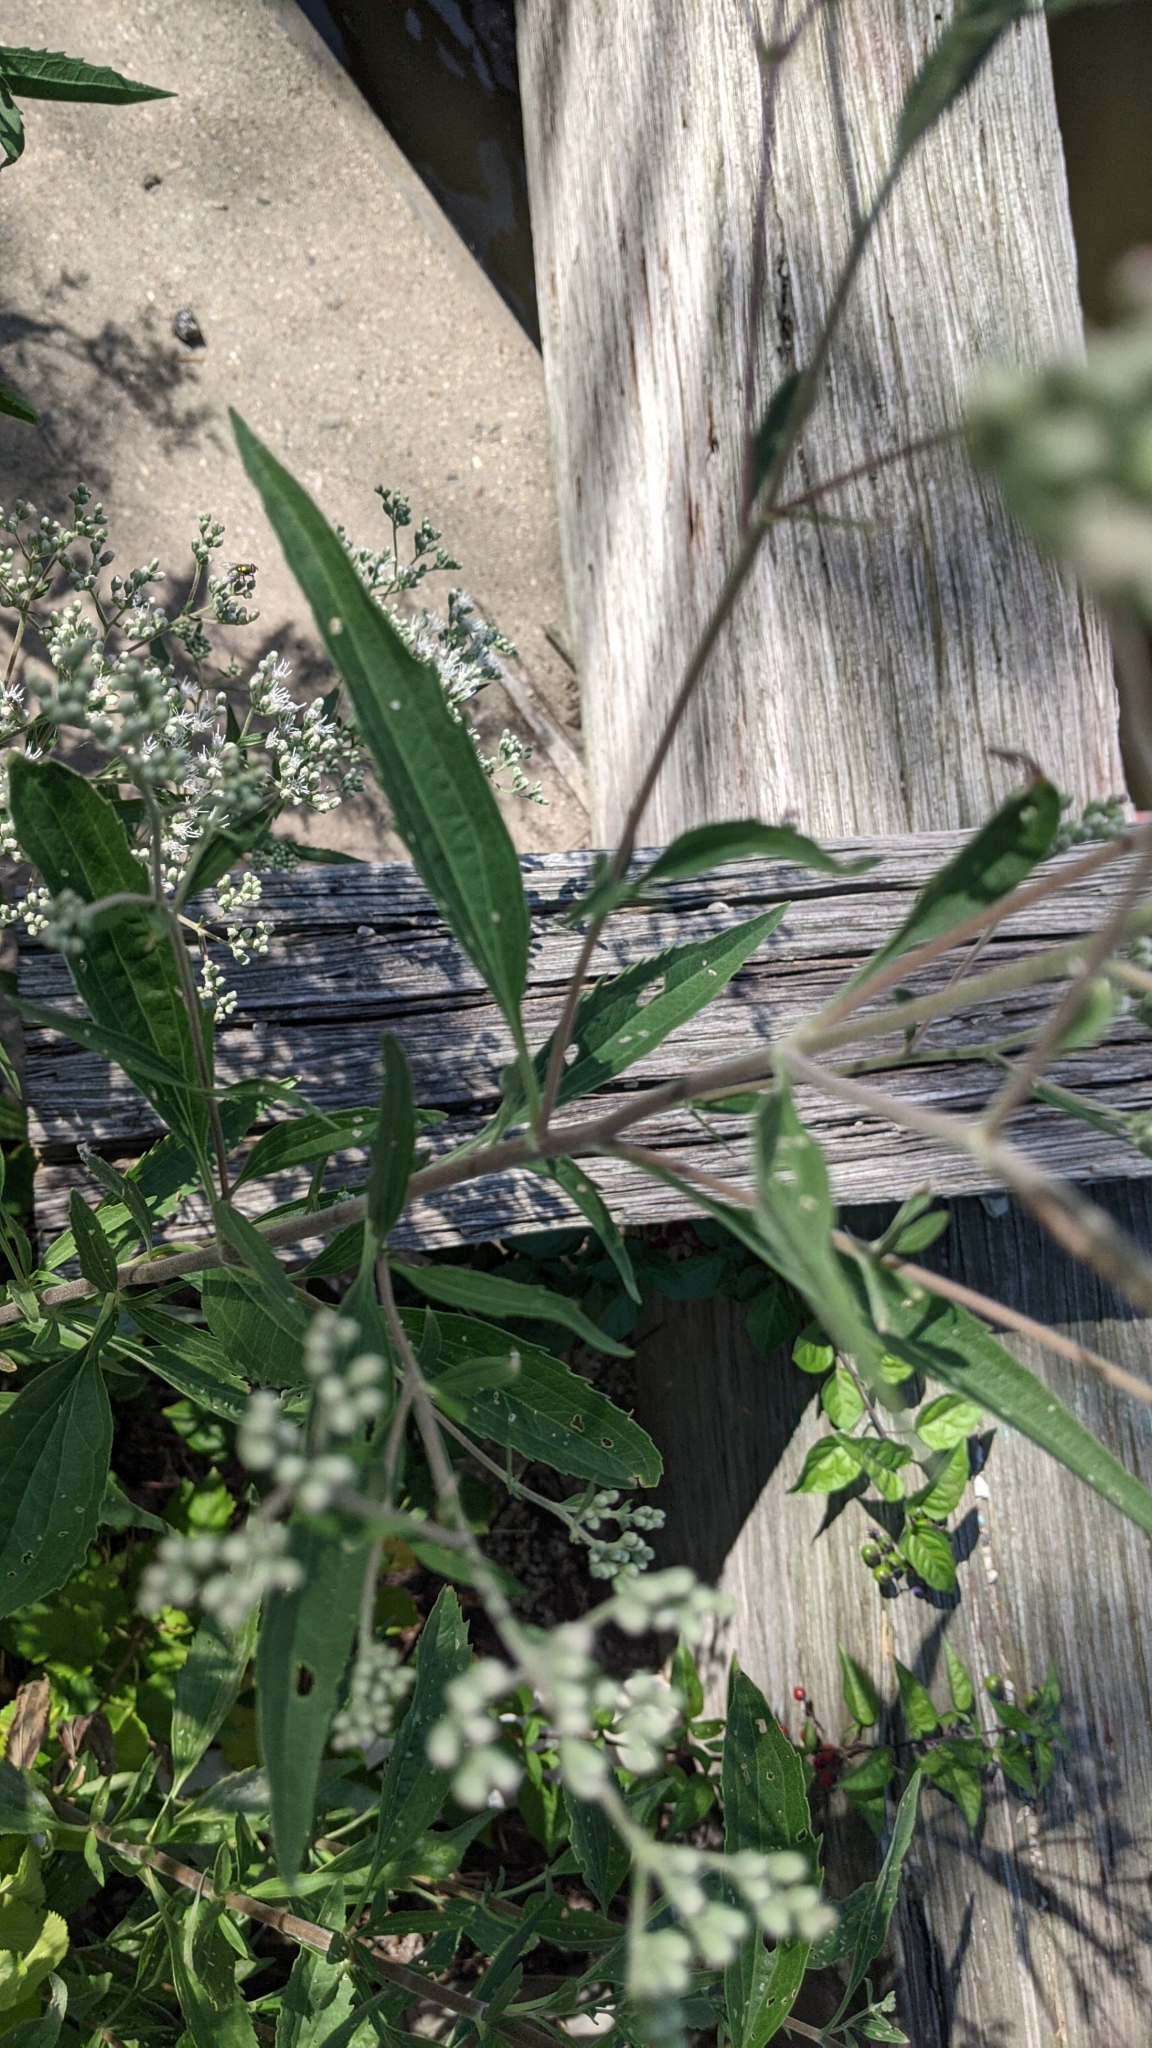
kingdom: Plantae
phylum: Tracheophyta
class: Magnoliopsida
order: Asterales
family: Asteraceae
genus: Eupatorium
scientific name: Eupatorium serotinum
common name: Late boneset
